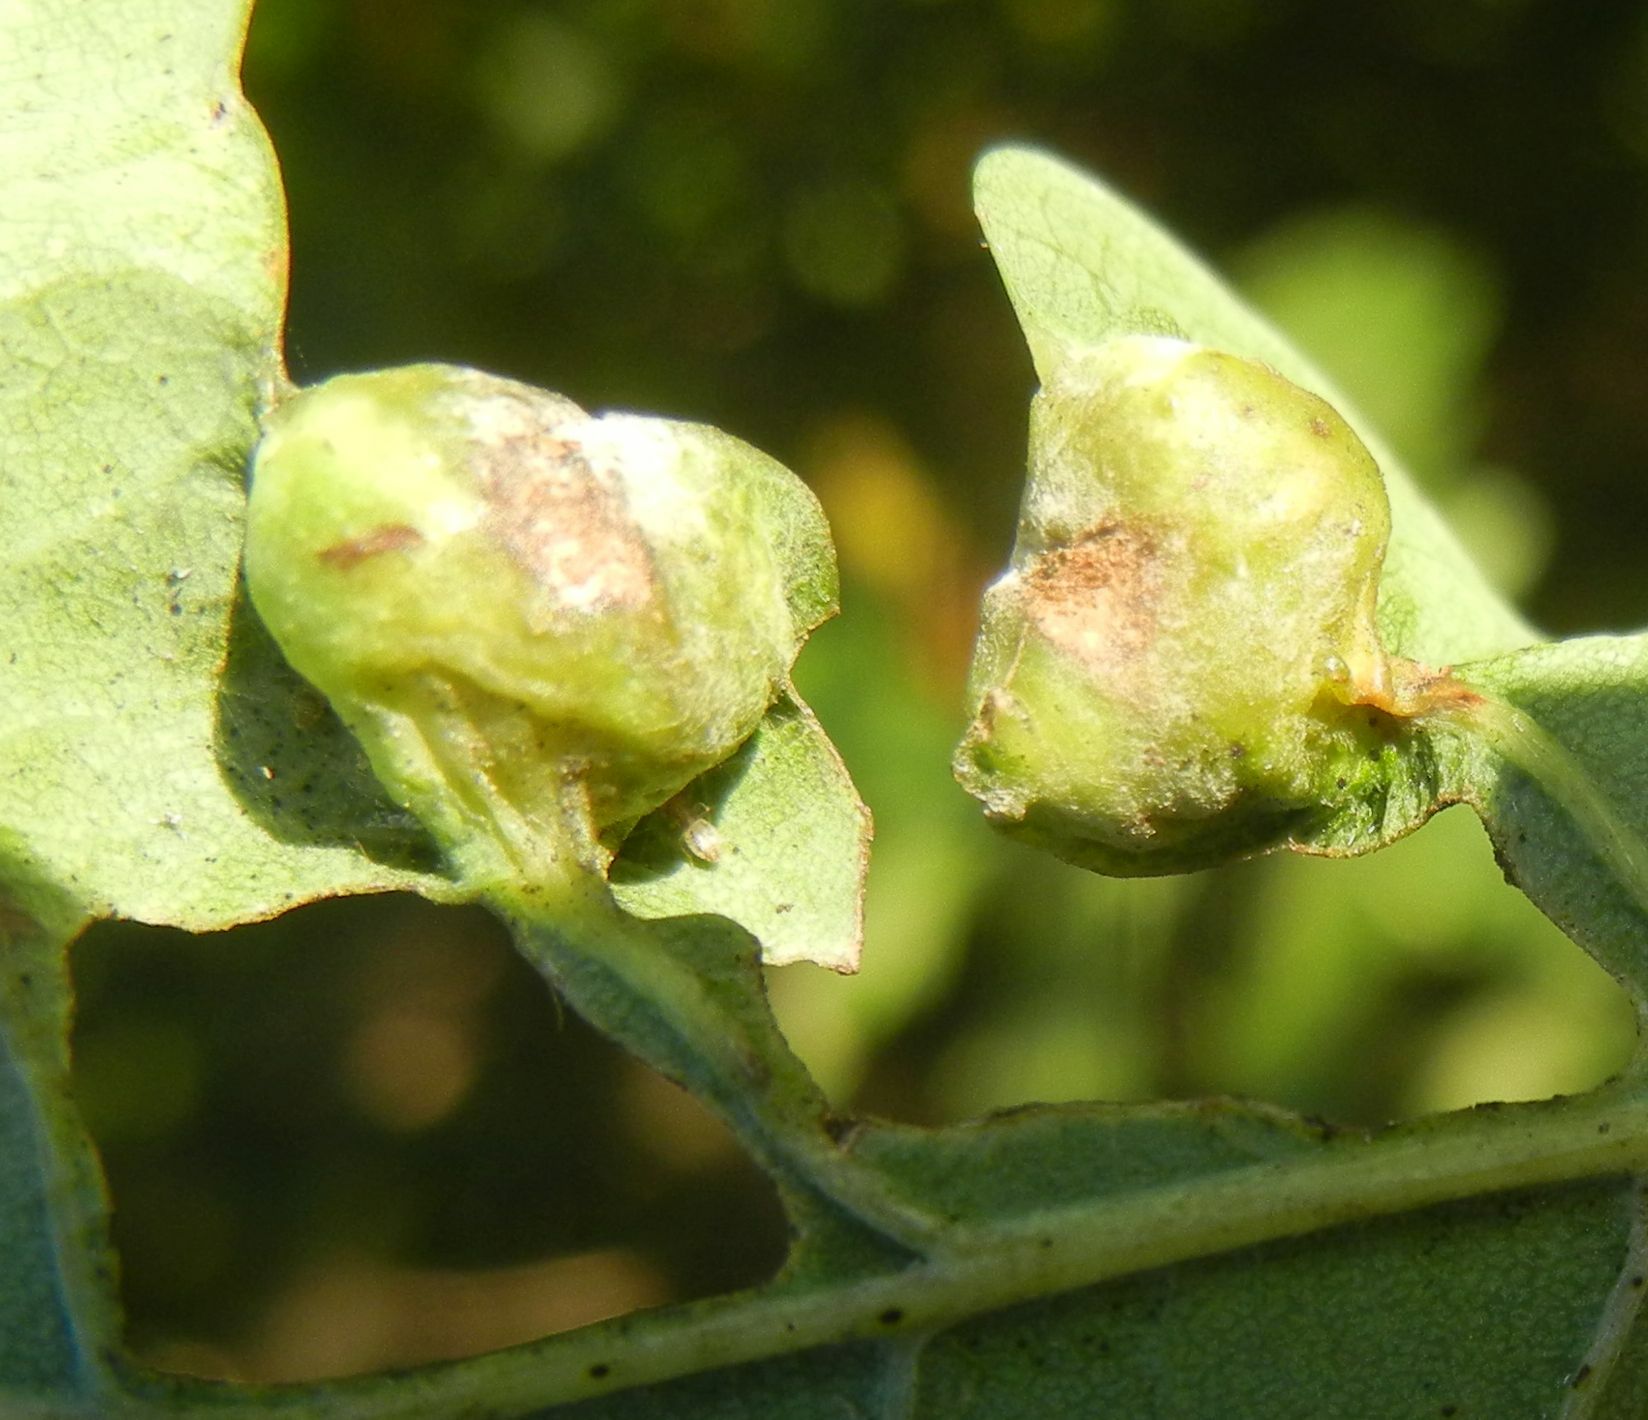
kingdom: Animalia
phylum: Arthropoda
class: Insecta
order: Hymenoptera
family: Cynipidae
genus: Andricus
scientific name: Andricus curvator
